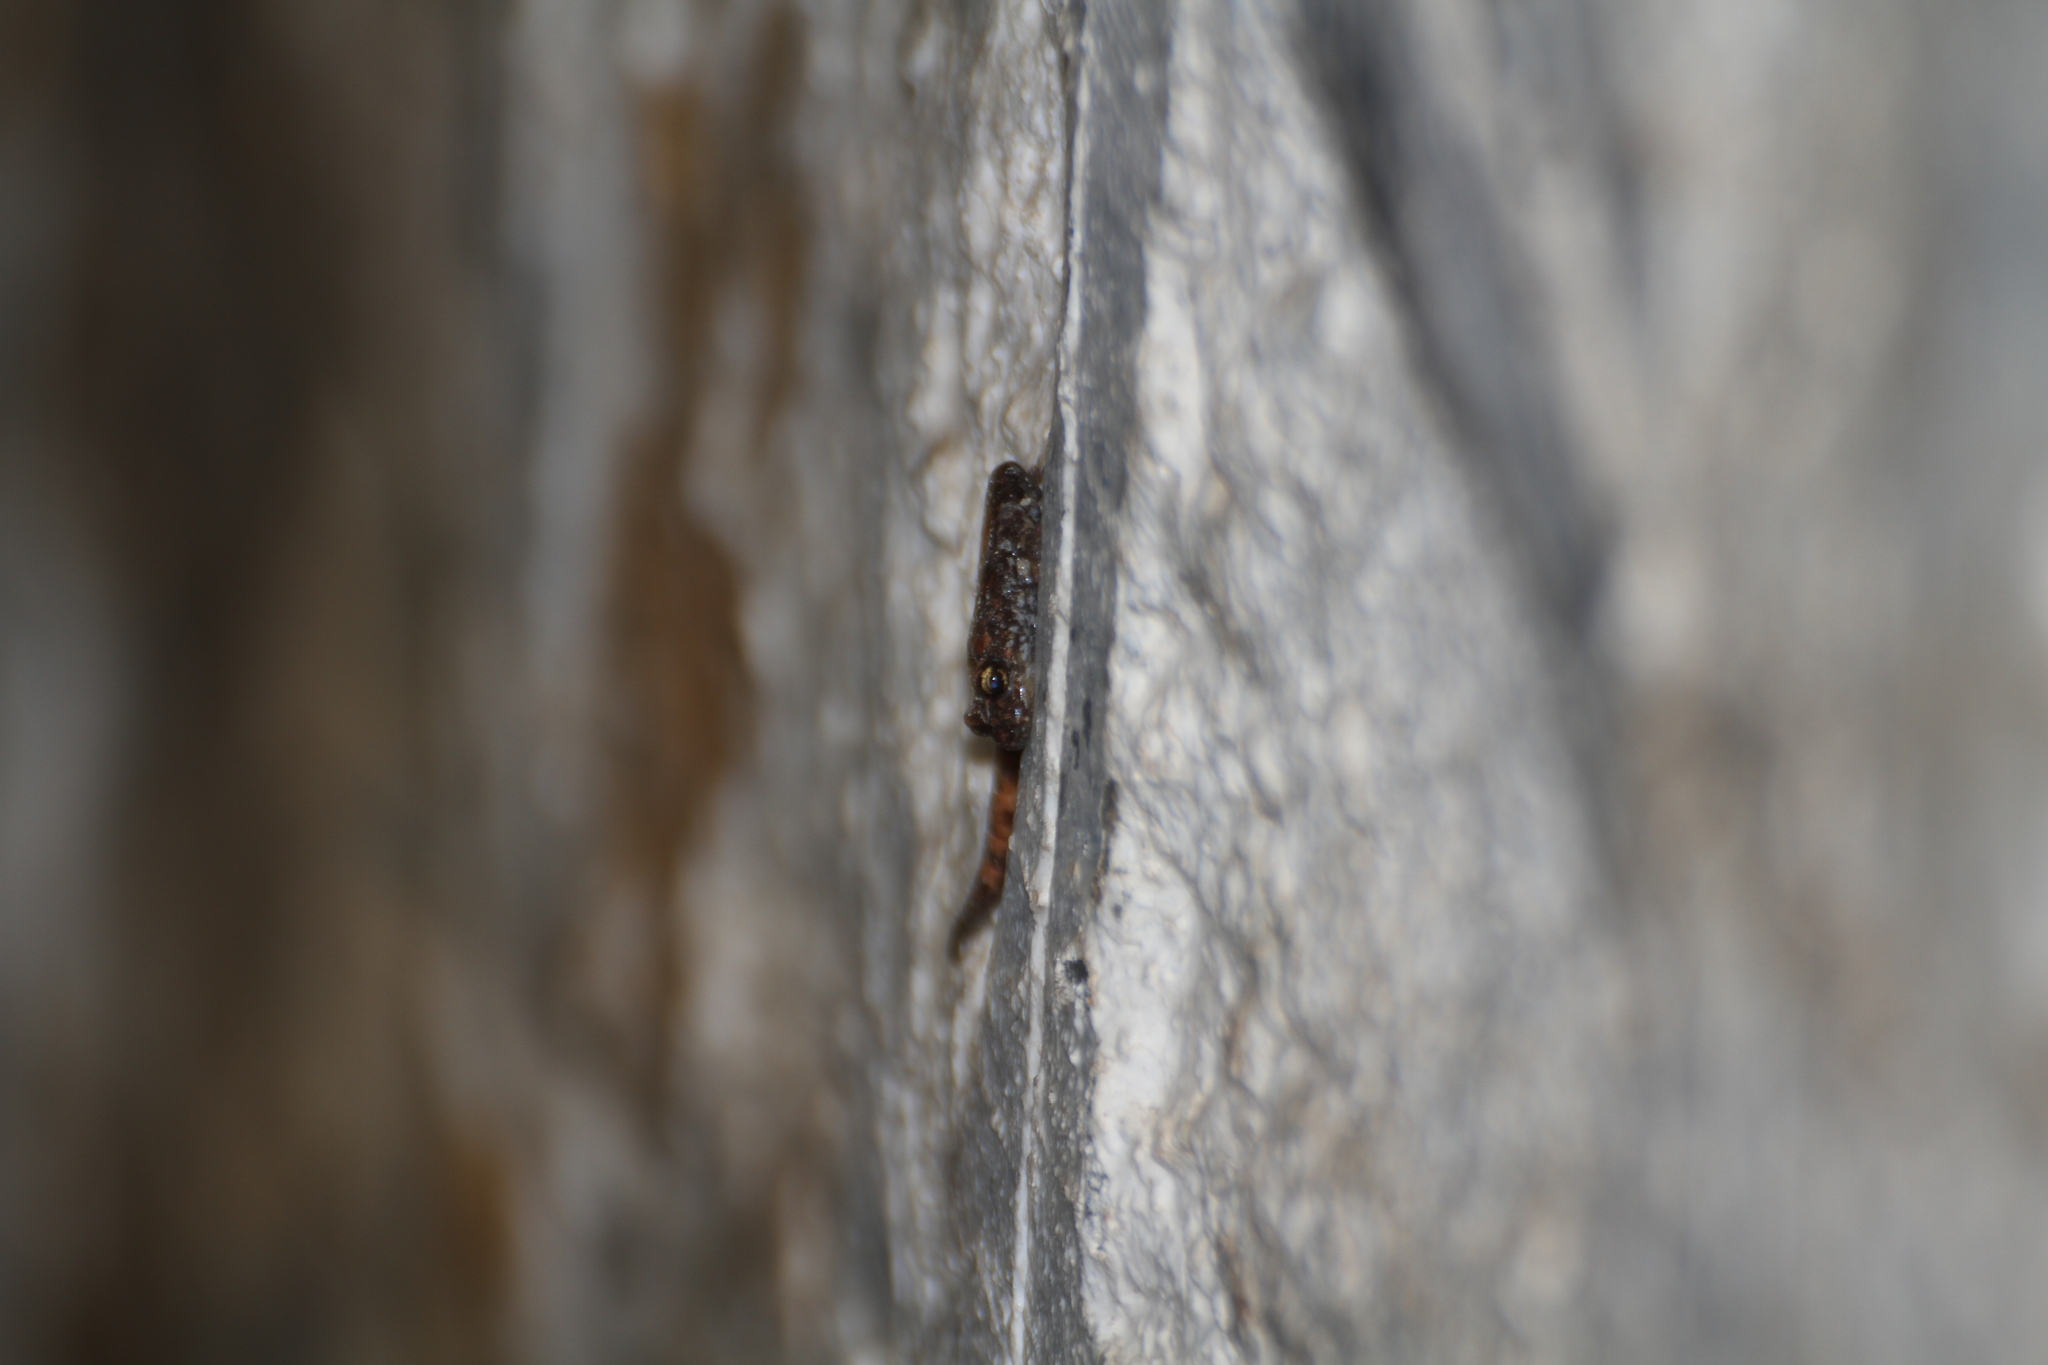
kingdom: Animalia
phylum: Chordata
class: Amphibia
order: Caudata
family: Plethodontidae
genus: Speleomantes
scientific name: Speleomantes strinatii
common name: French cave salamander
